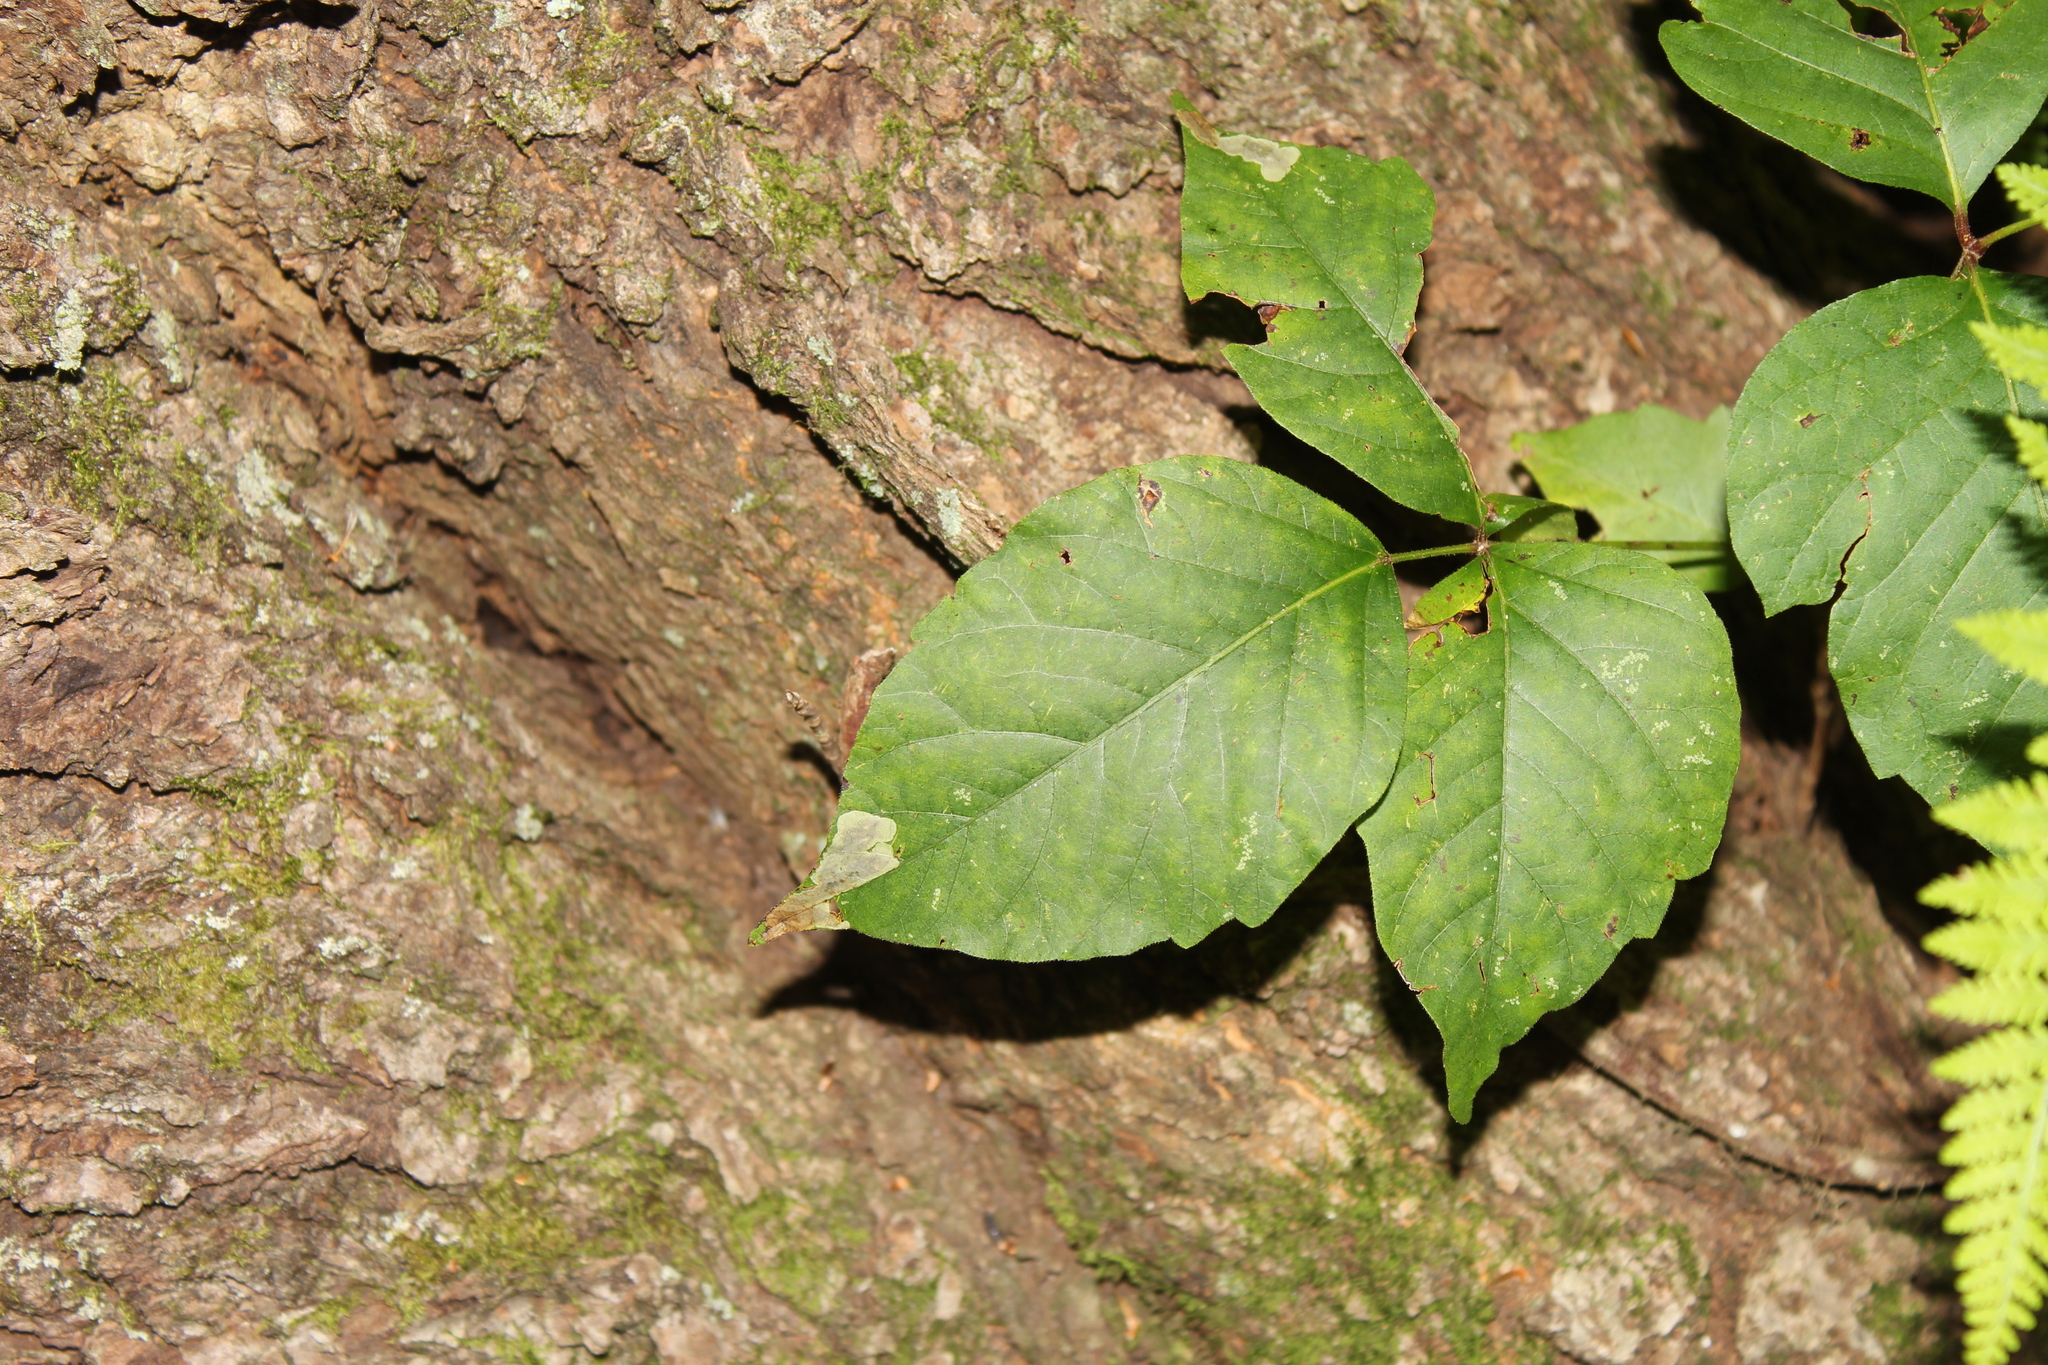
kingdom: Animalia
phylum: Arthropoda
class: Insecta
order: Lepidoptera
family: Gracillariidae
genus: Cameraria
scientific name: Cameraria guttifinitella
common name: Poison ivy leaf-miner moth
